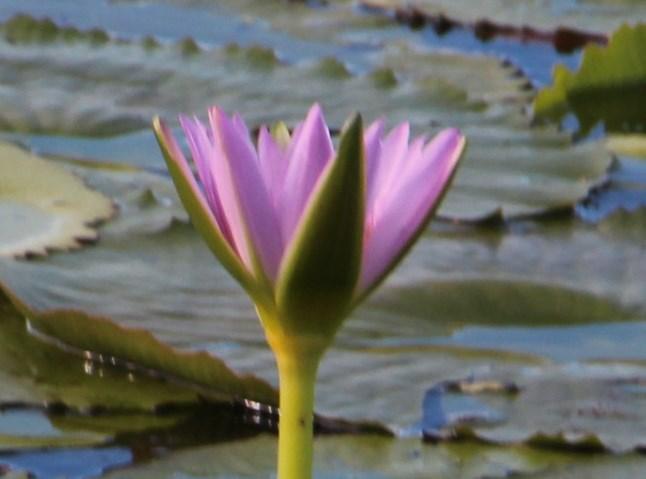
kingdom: Plantae
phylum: Tracheophyta
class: Magnoliopsida
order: Nymphaeales
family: Nymphaeaceae
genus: Nymphaea
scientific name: Nymphaea nouchali
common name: Blue lotus
